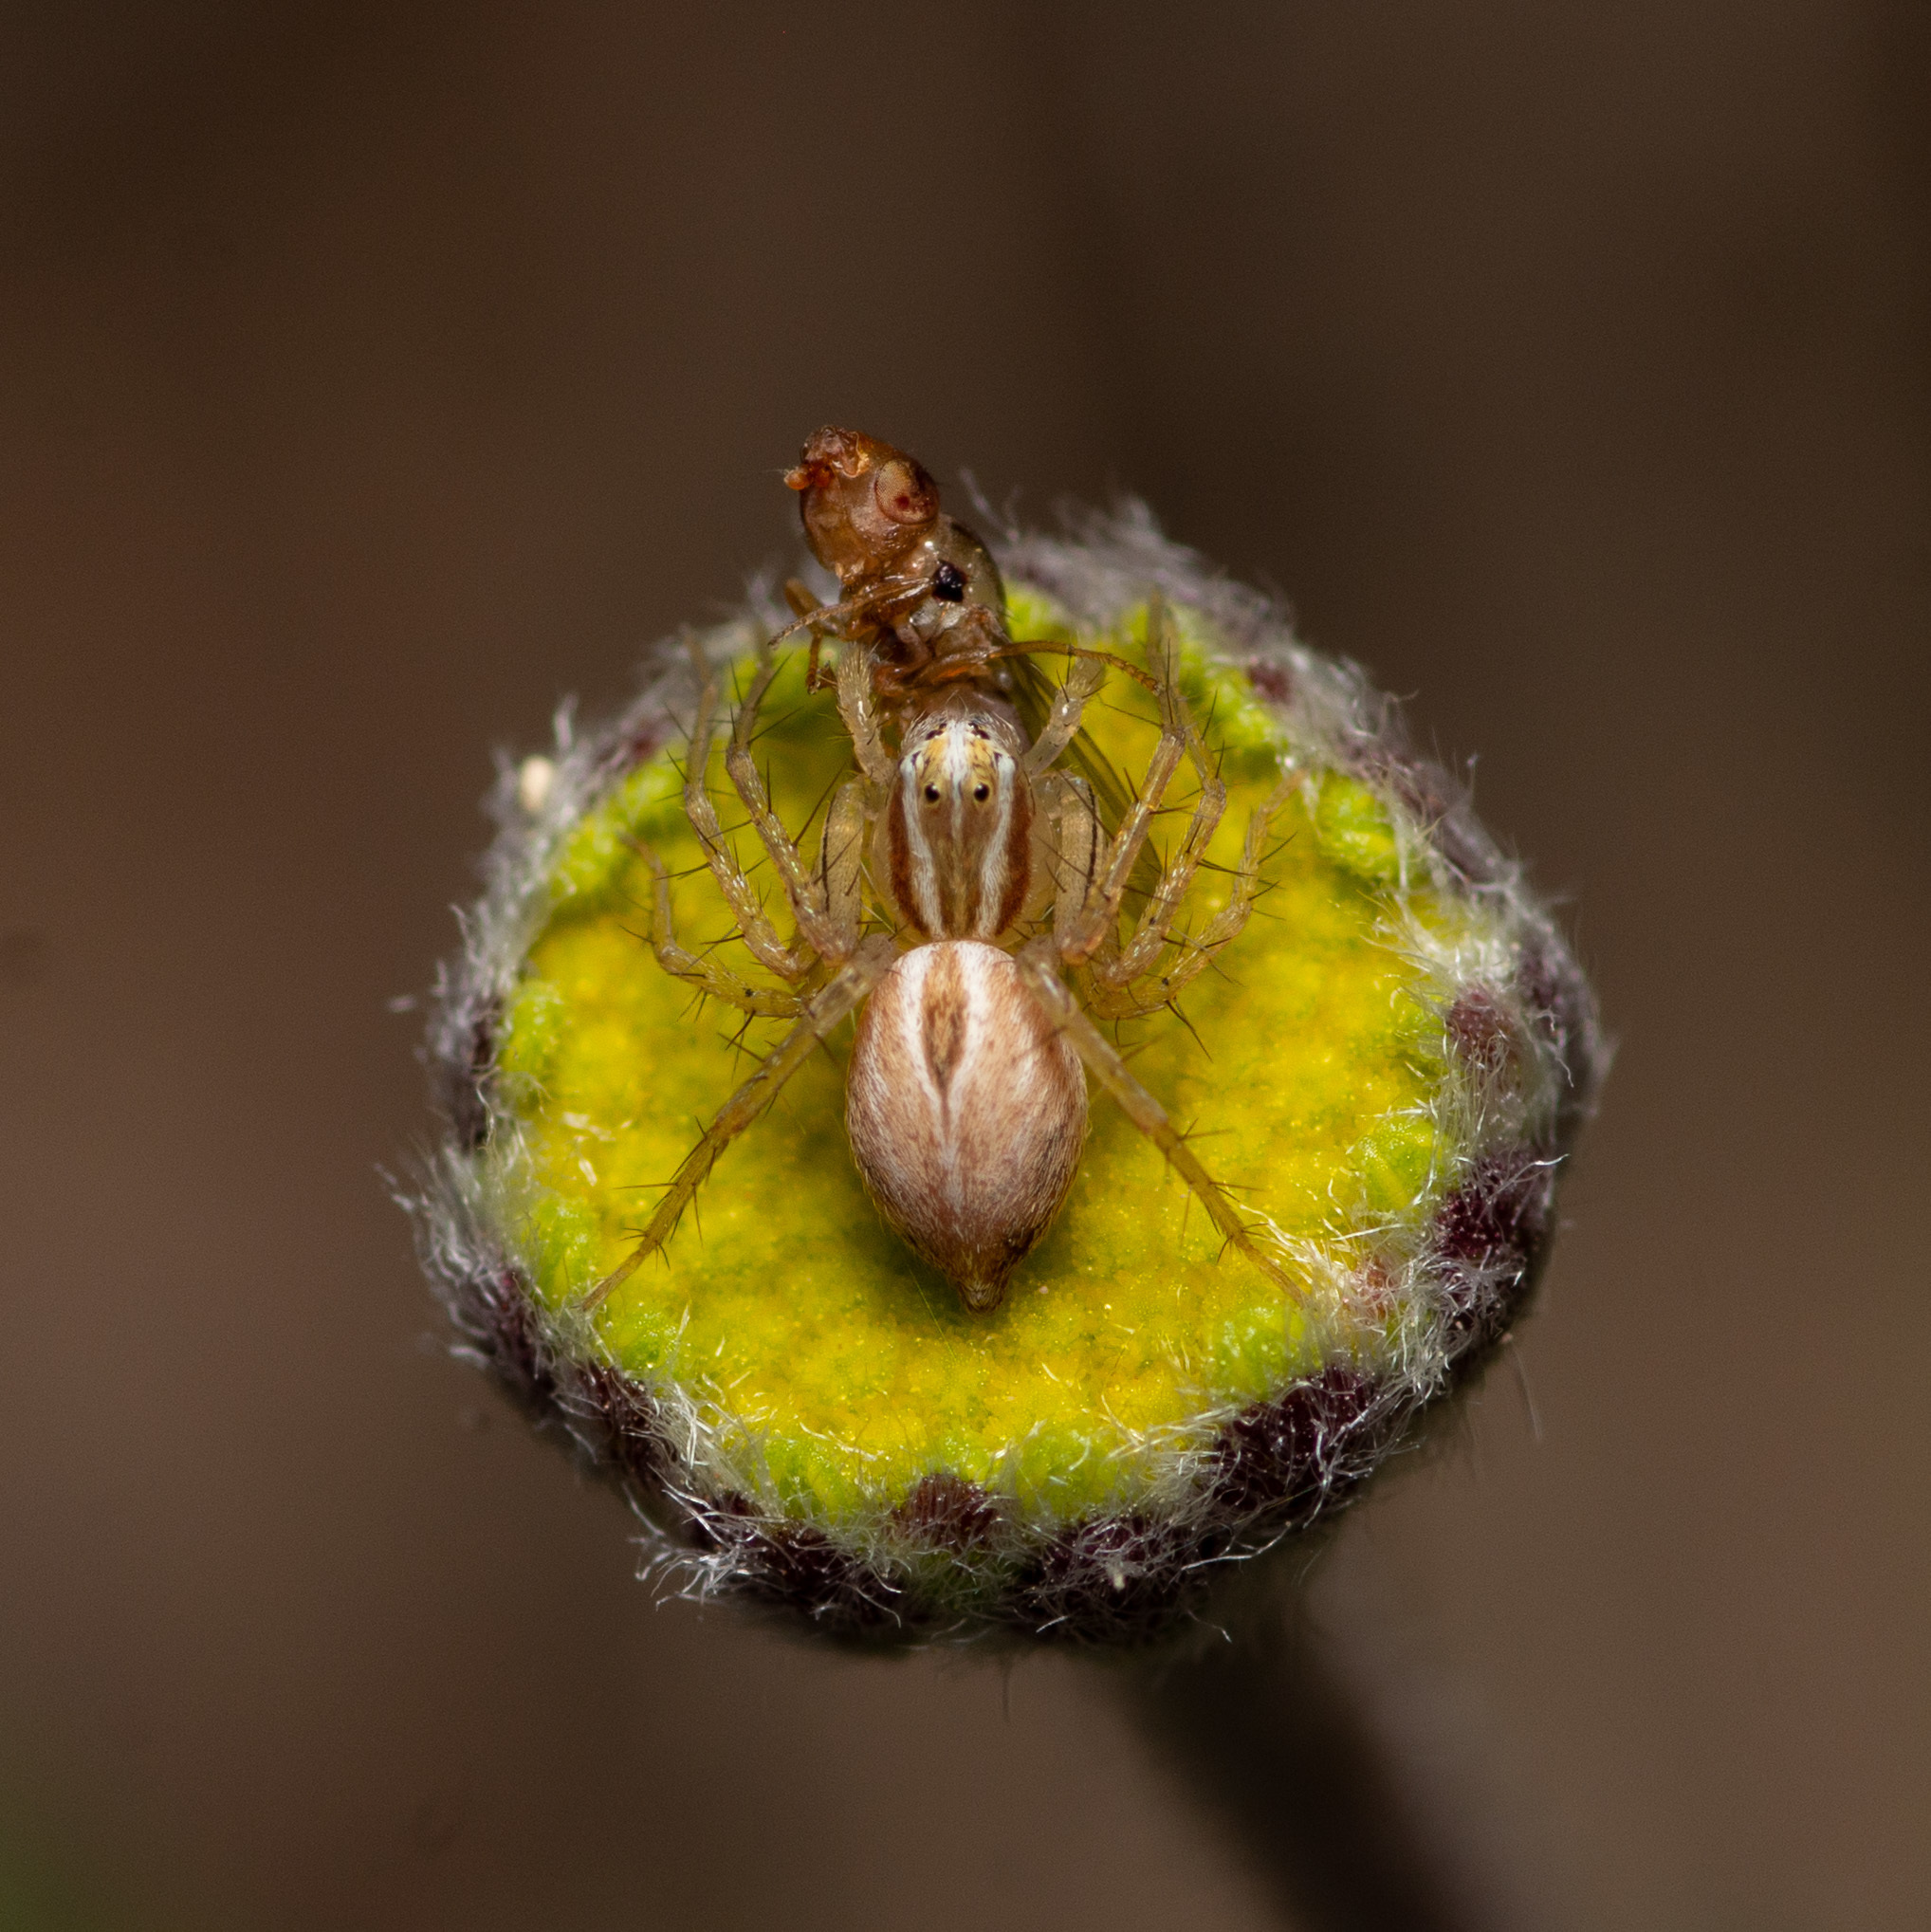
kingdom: Animalia
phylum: Arthropoda
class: Arachnida
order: Araneae
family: Oxyopidae
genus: Oxyopes
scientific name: Oxyopes salticus
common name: Lynx spiders
